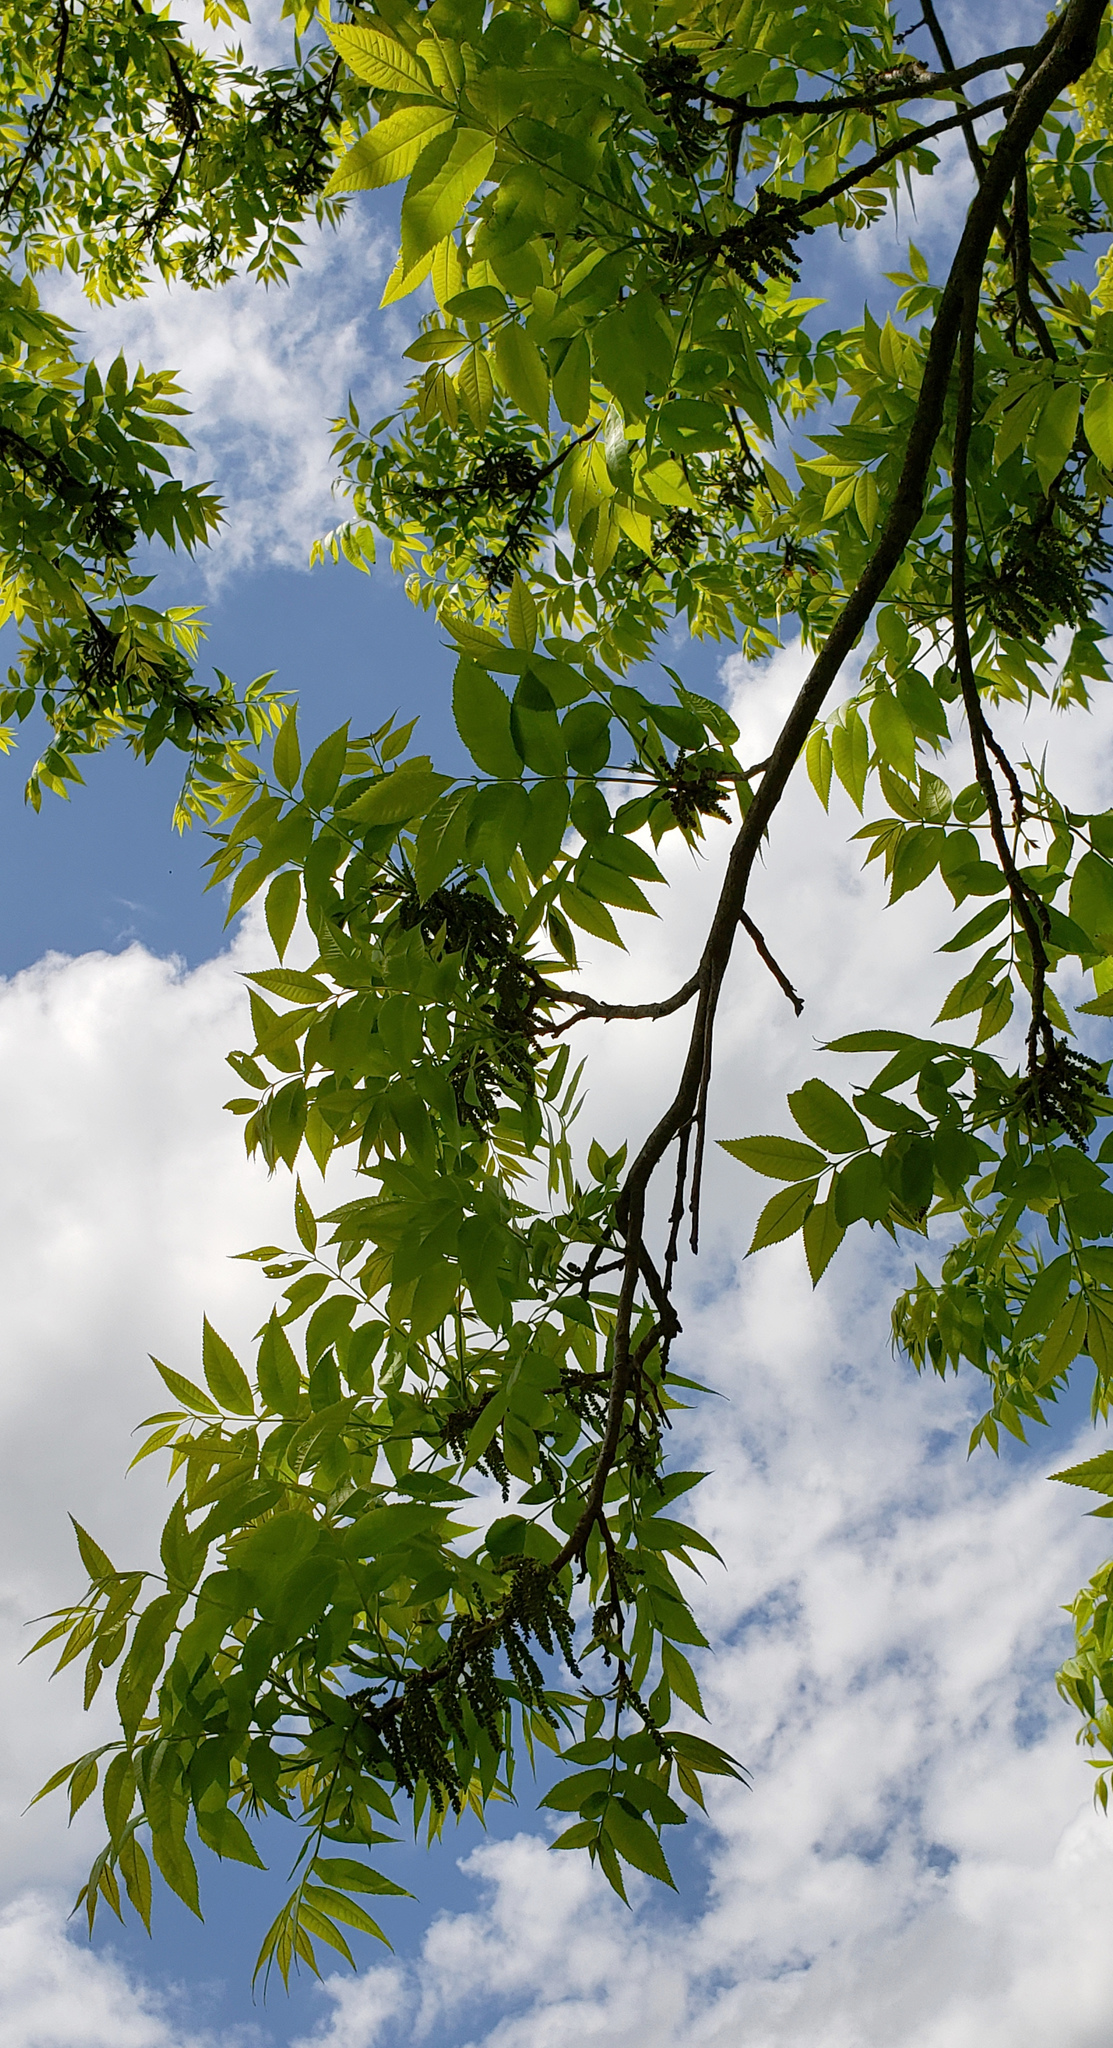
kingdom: Plantae
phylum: Tracheophyta
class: Magnoliopsida
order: Fagales
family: Juglandaceae
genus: Carya
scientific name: Carya illinoinensis
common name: Pecan
